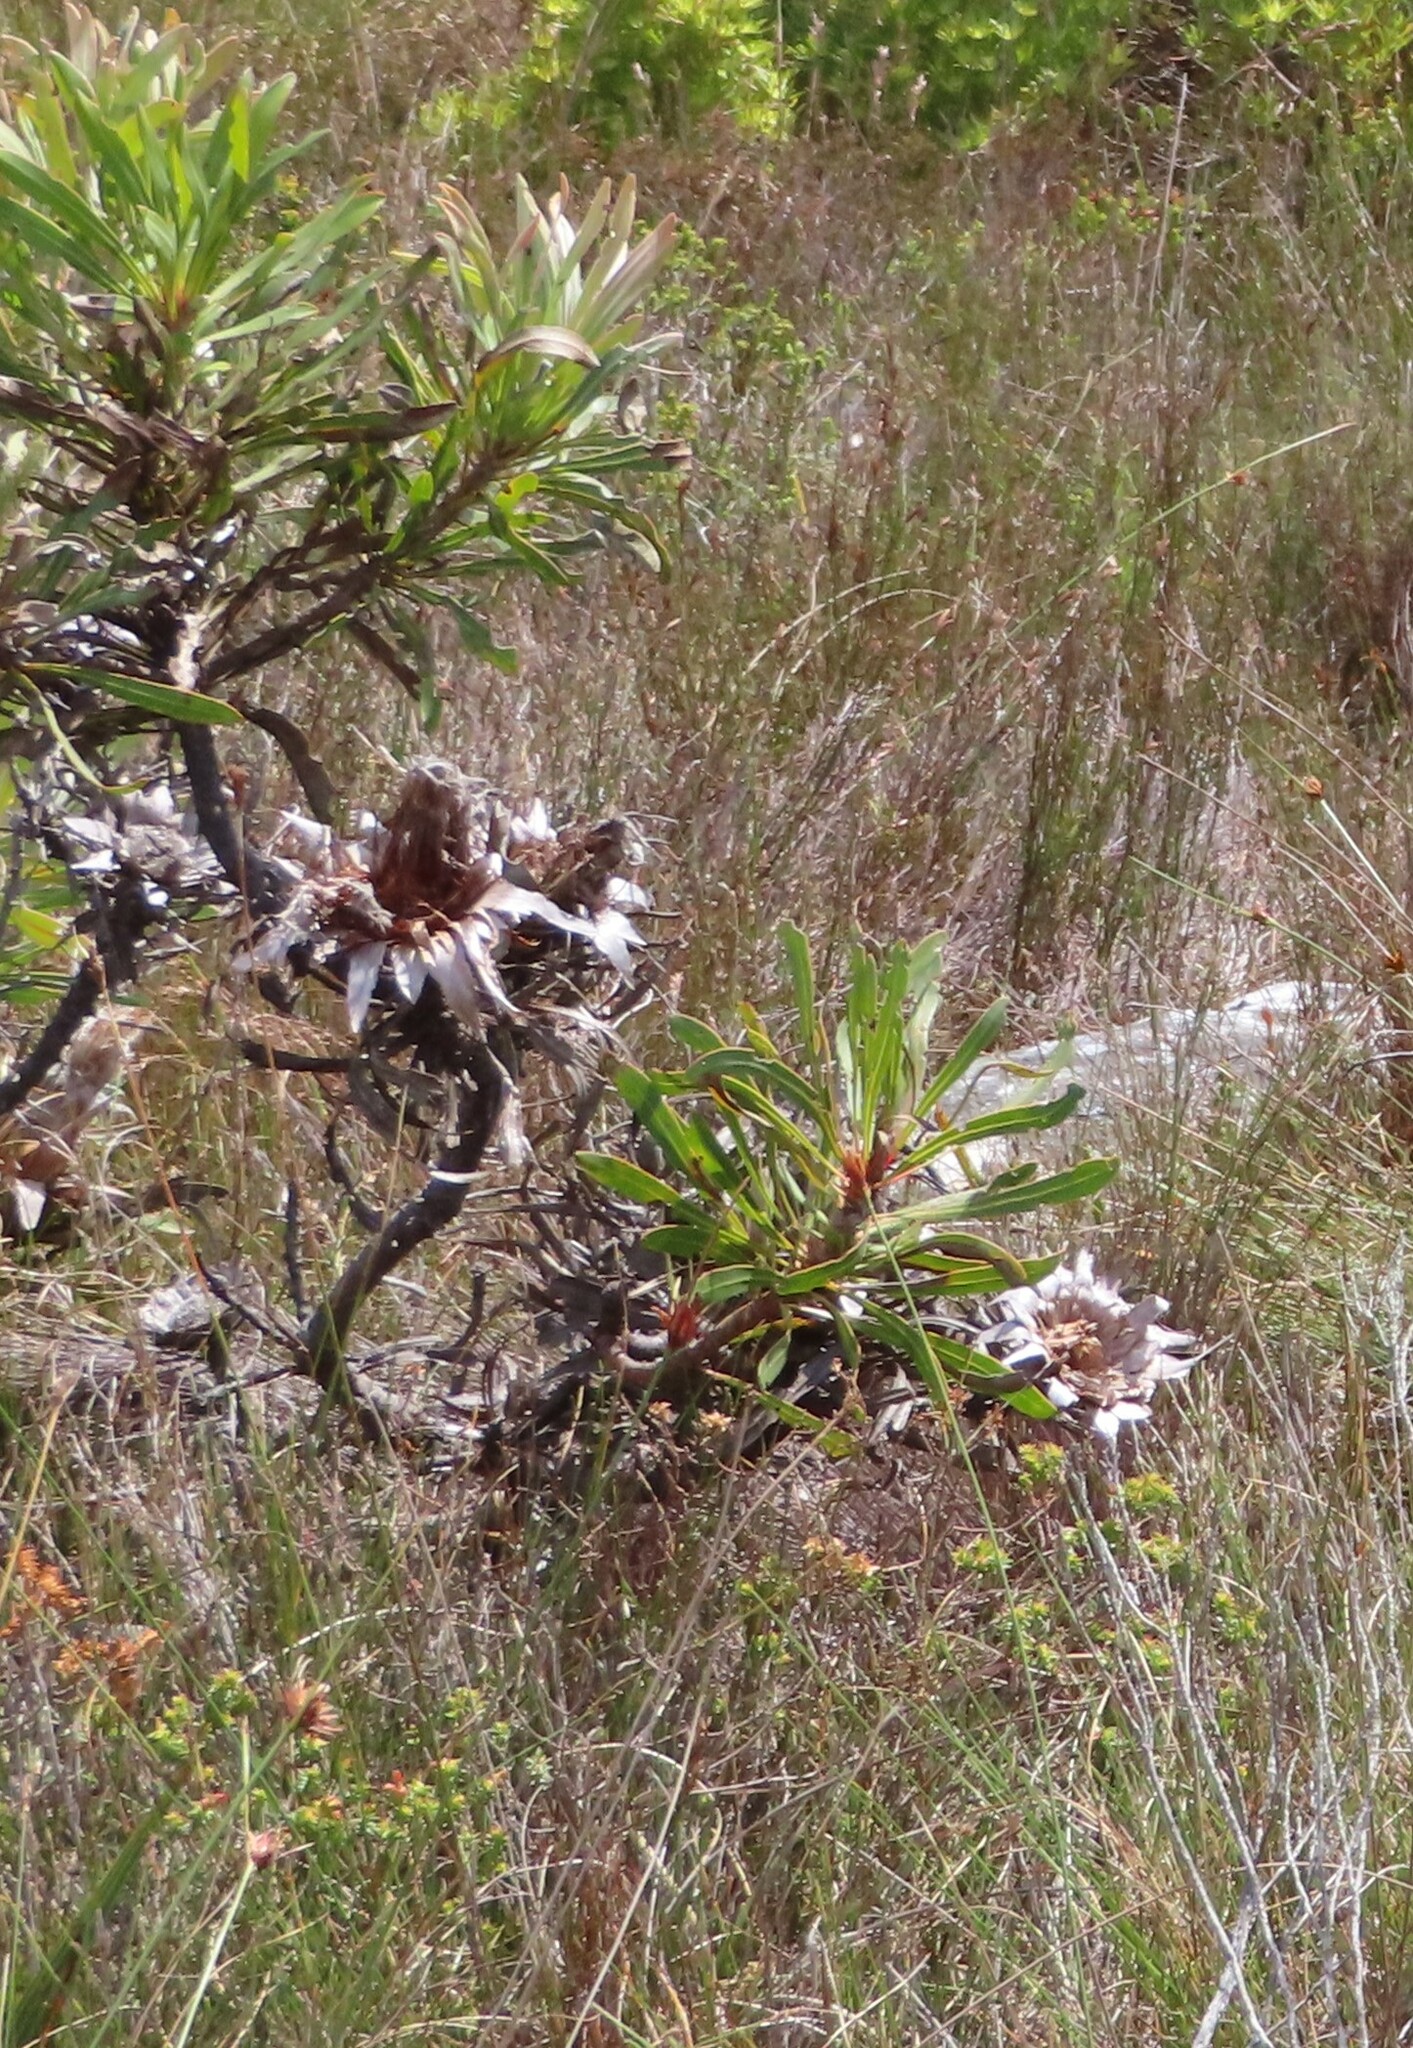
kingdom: Plantae
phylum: Tracheophyta
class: Magnoliopsida
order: Proteales
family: Proteaceae
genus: Protea
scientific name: Protea longifolia
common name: Long-leaf sugarbush
